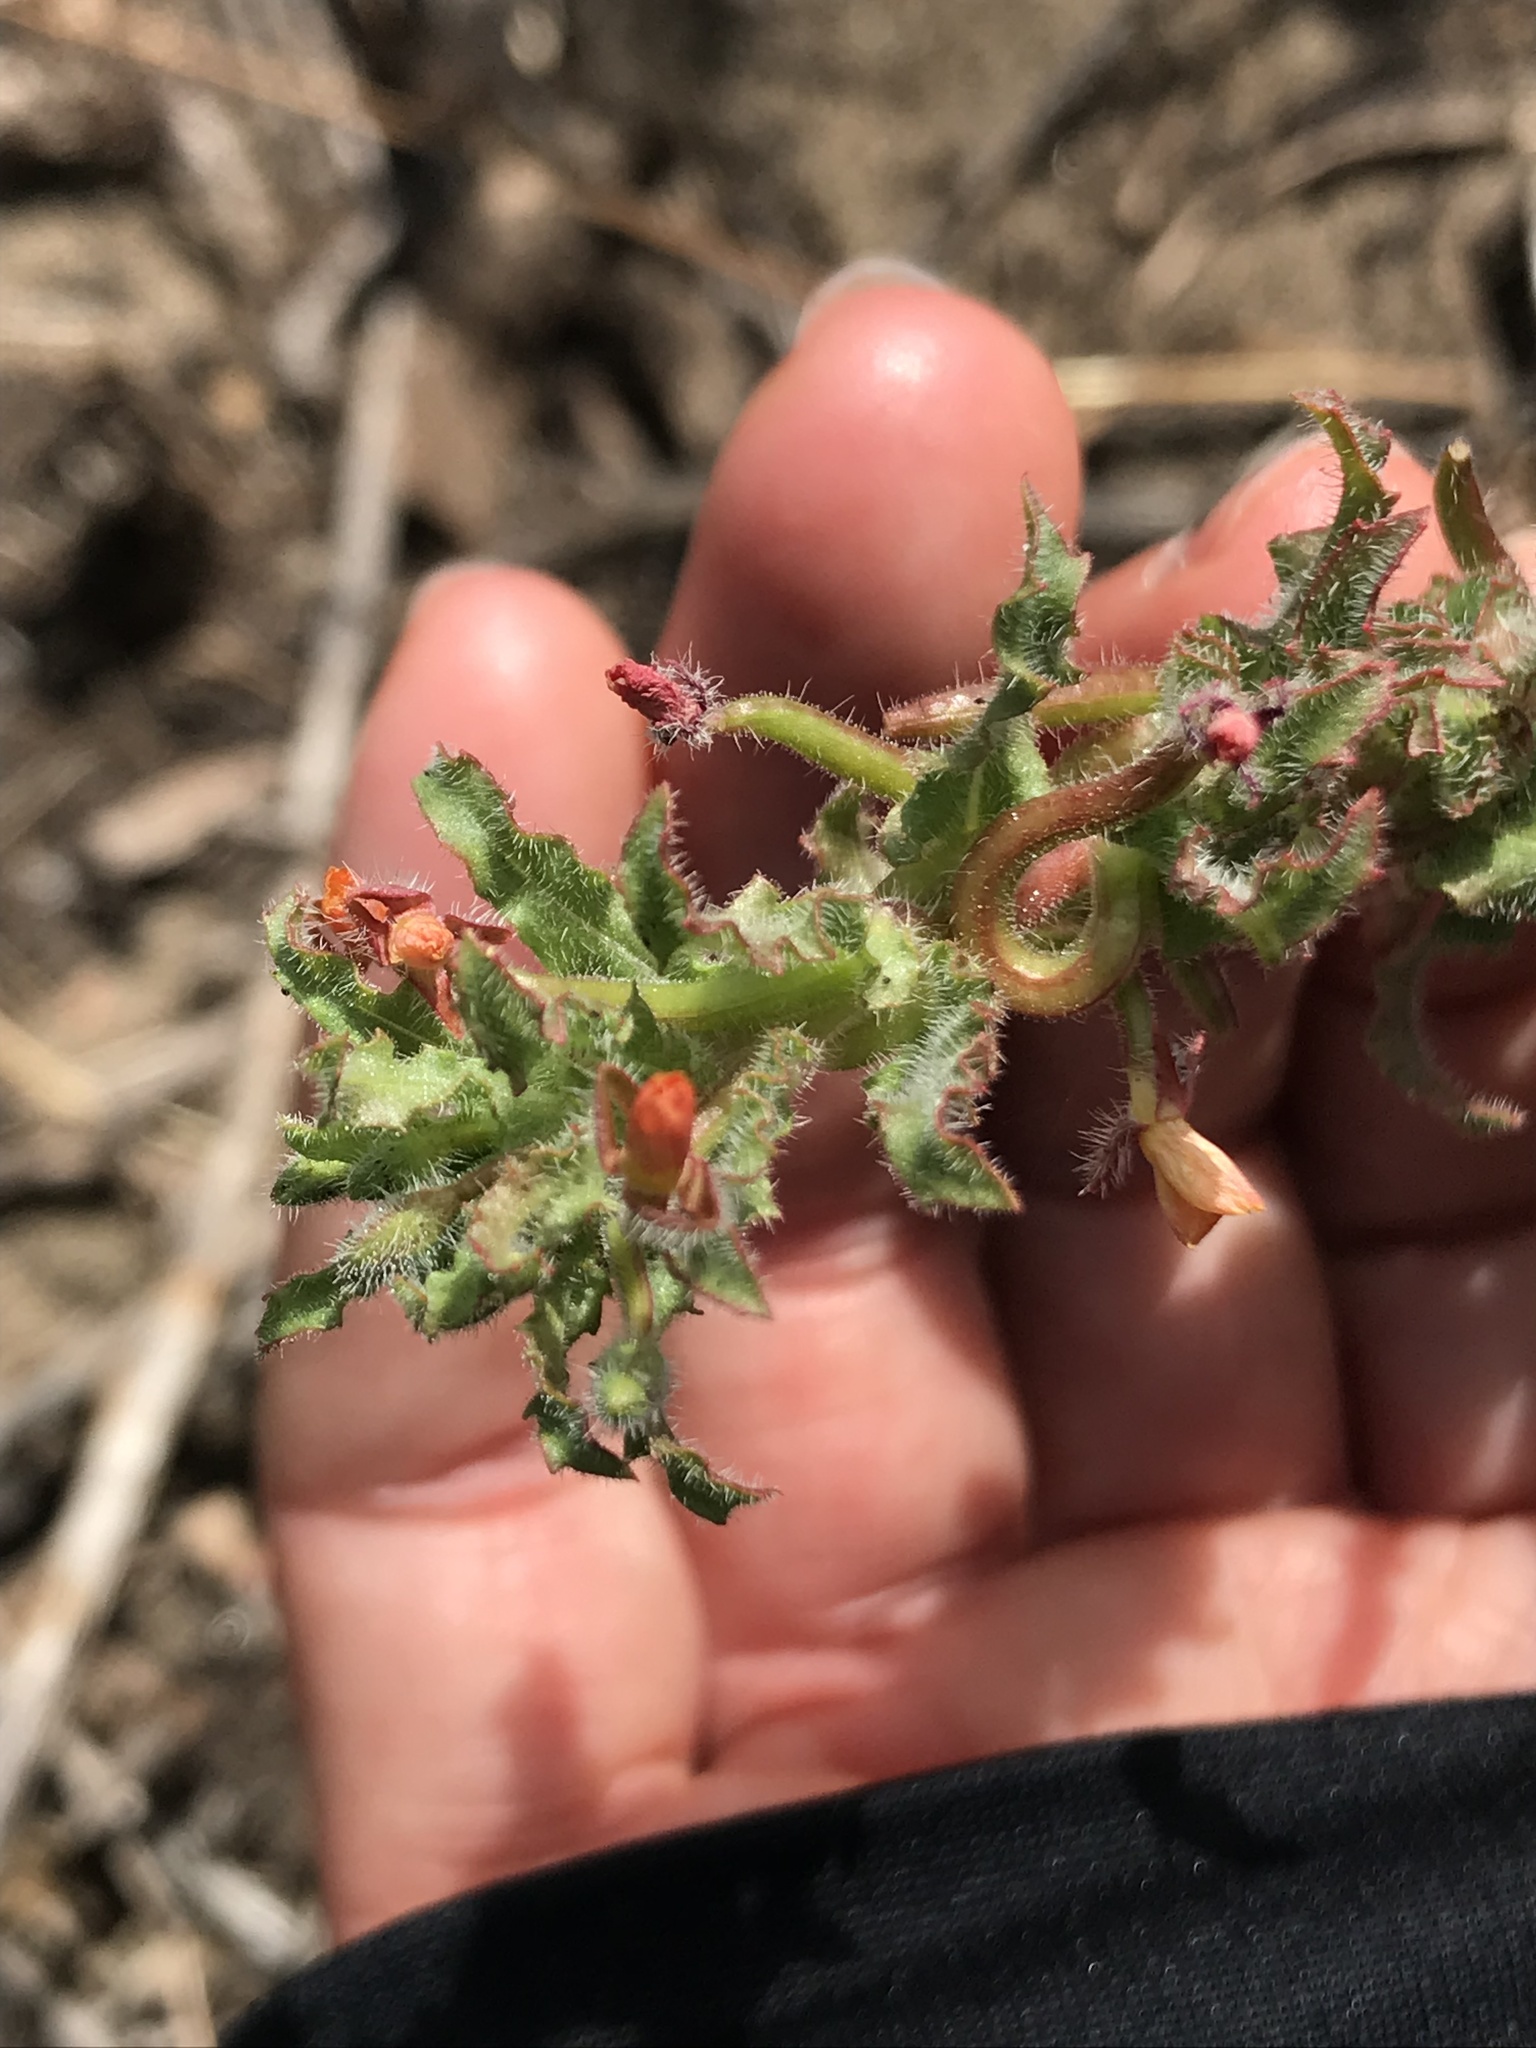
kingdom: Plantae
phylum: Tracheophyta
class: Magnoliopsida
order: Myrtales
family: Onagraceae
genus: Camissoniopsis
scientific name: Camissoniopsis micrantha
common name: Miniature suncup
